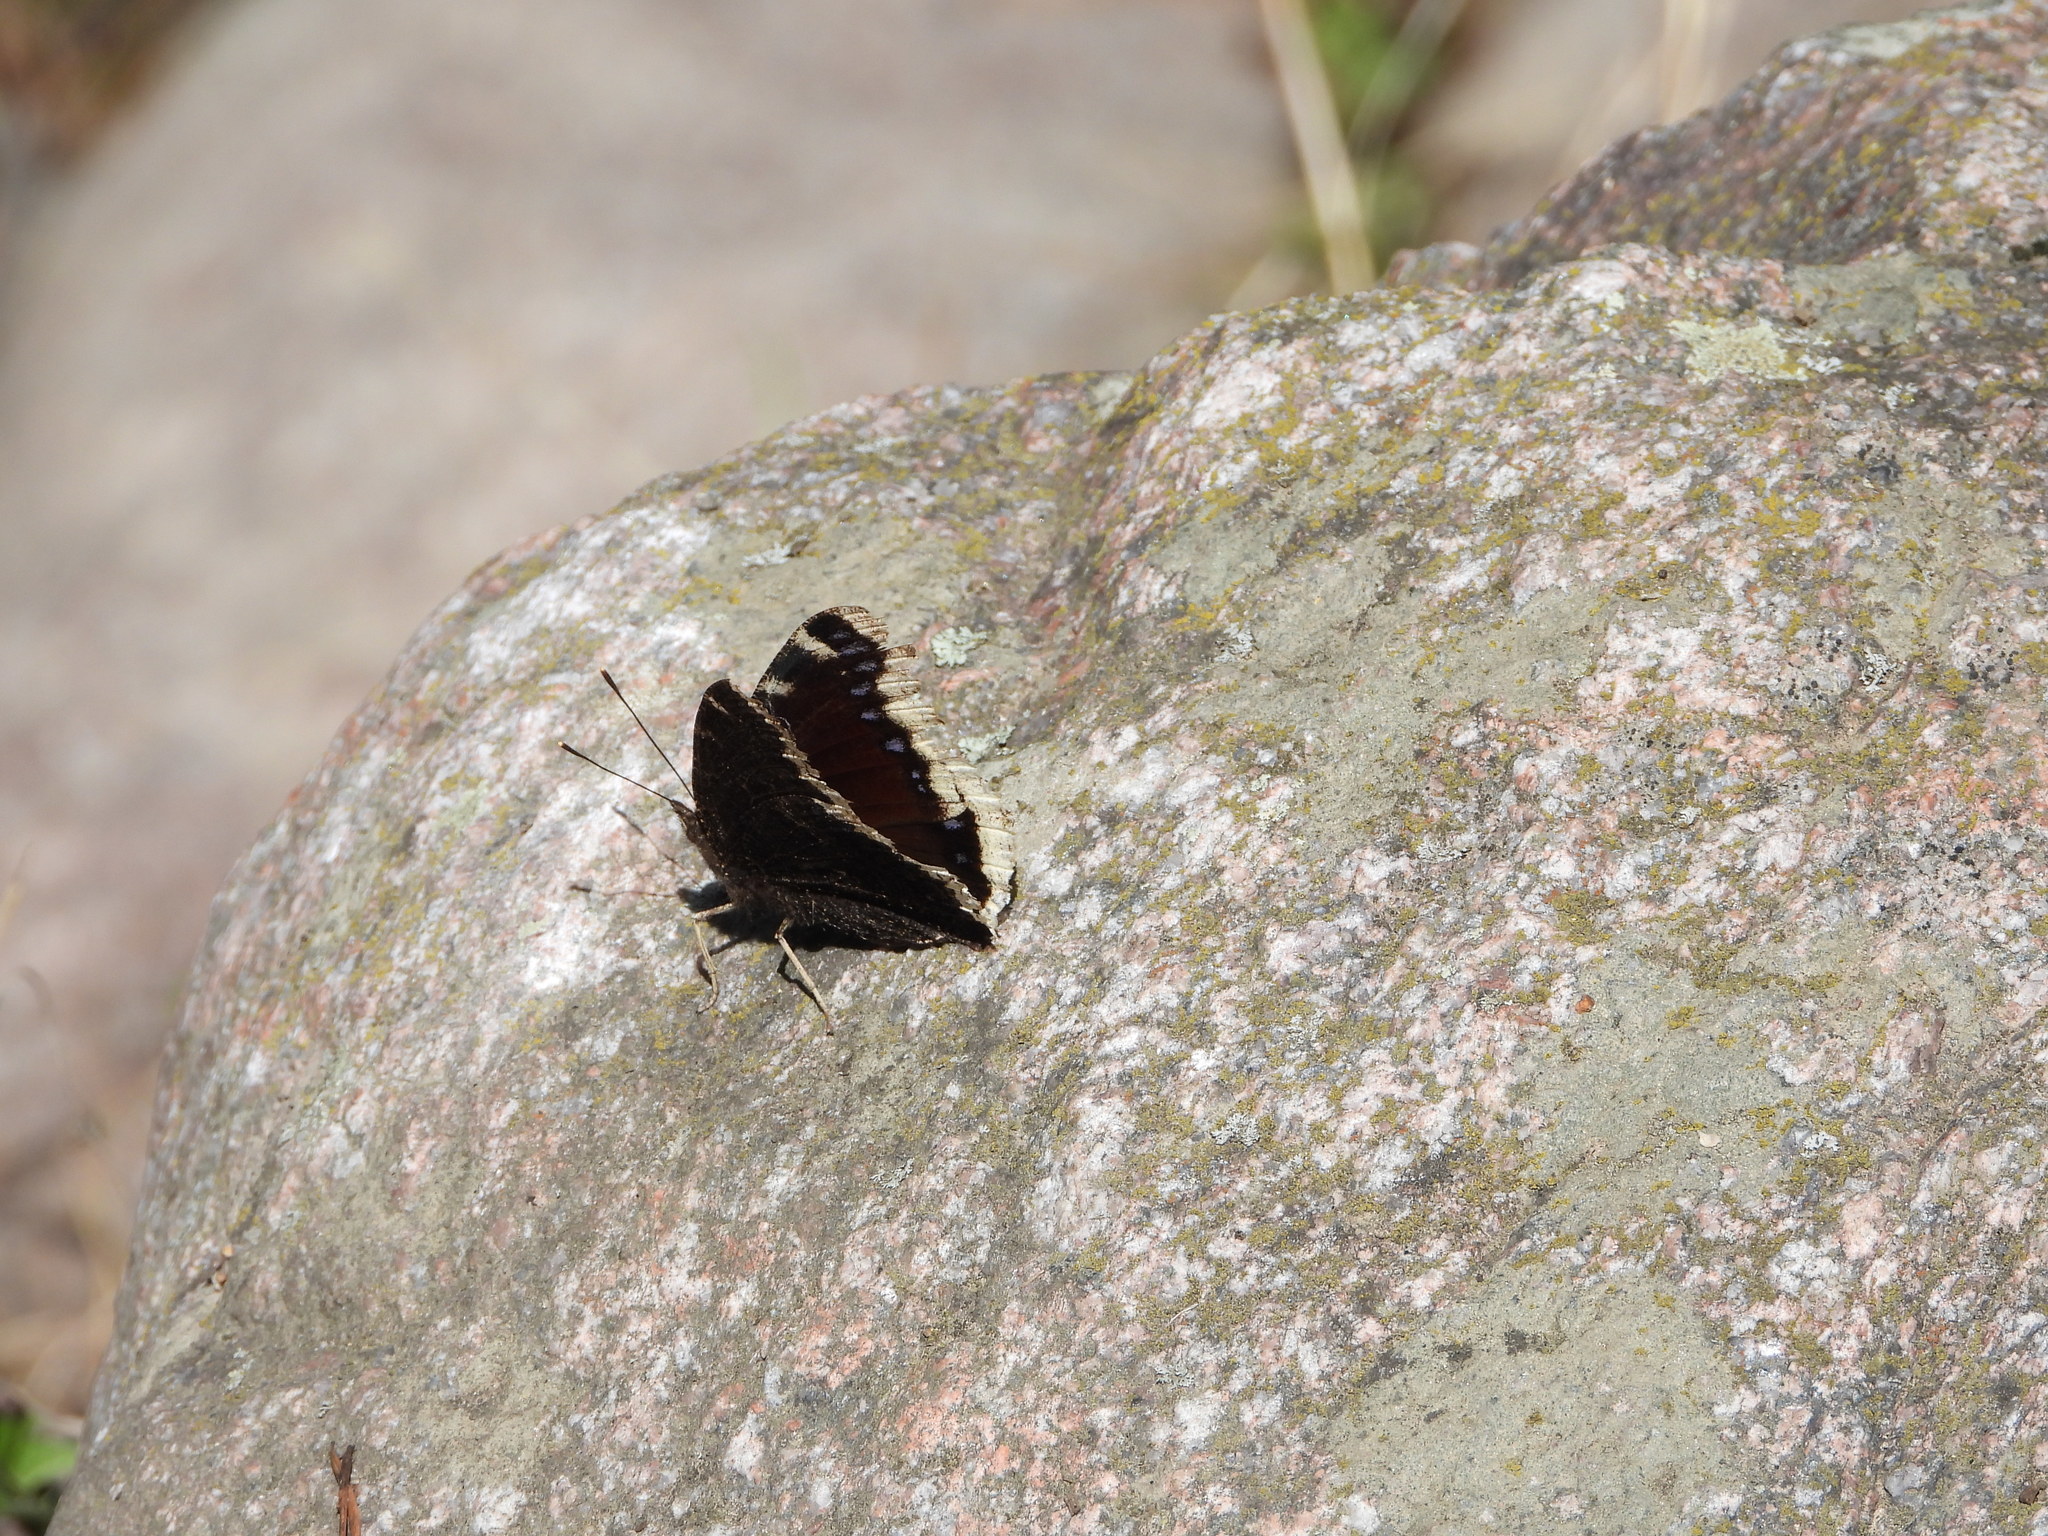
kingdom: Animalia
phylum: Arthropoda
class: Insecta
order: Lepidoptera
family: Nymphalidae
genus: Nymphalis
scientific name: Nymphalis antiopa
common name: Camberwell beauty
